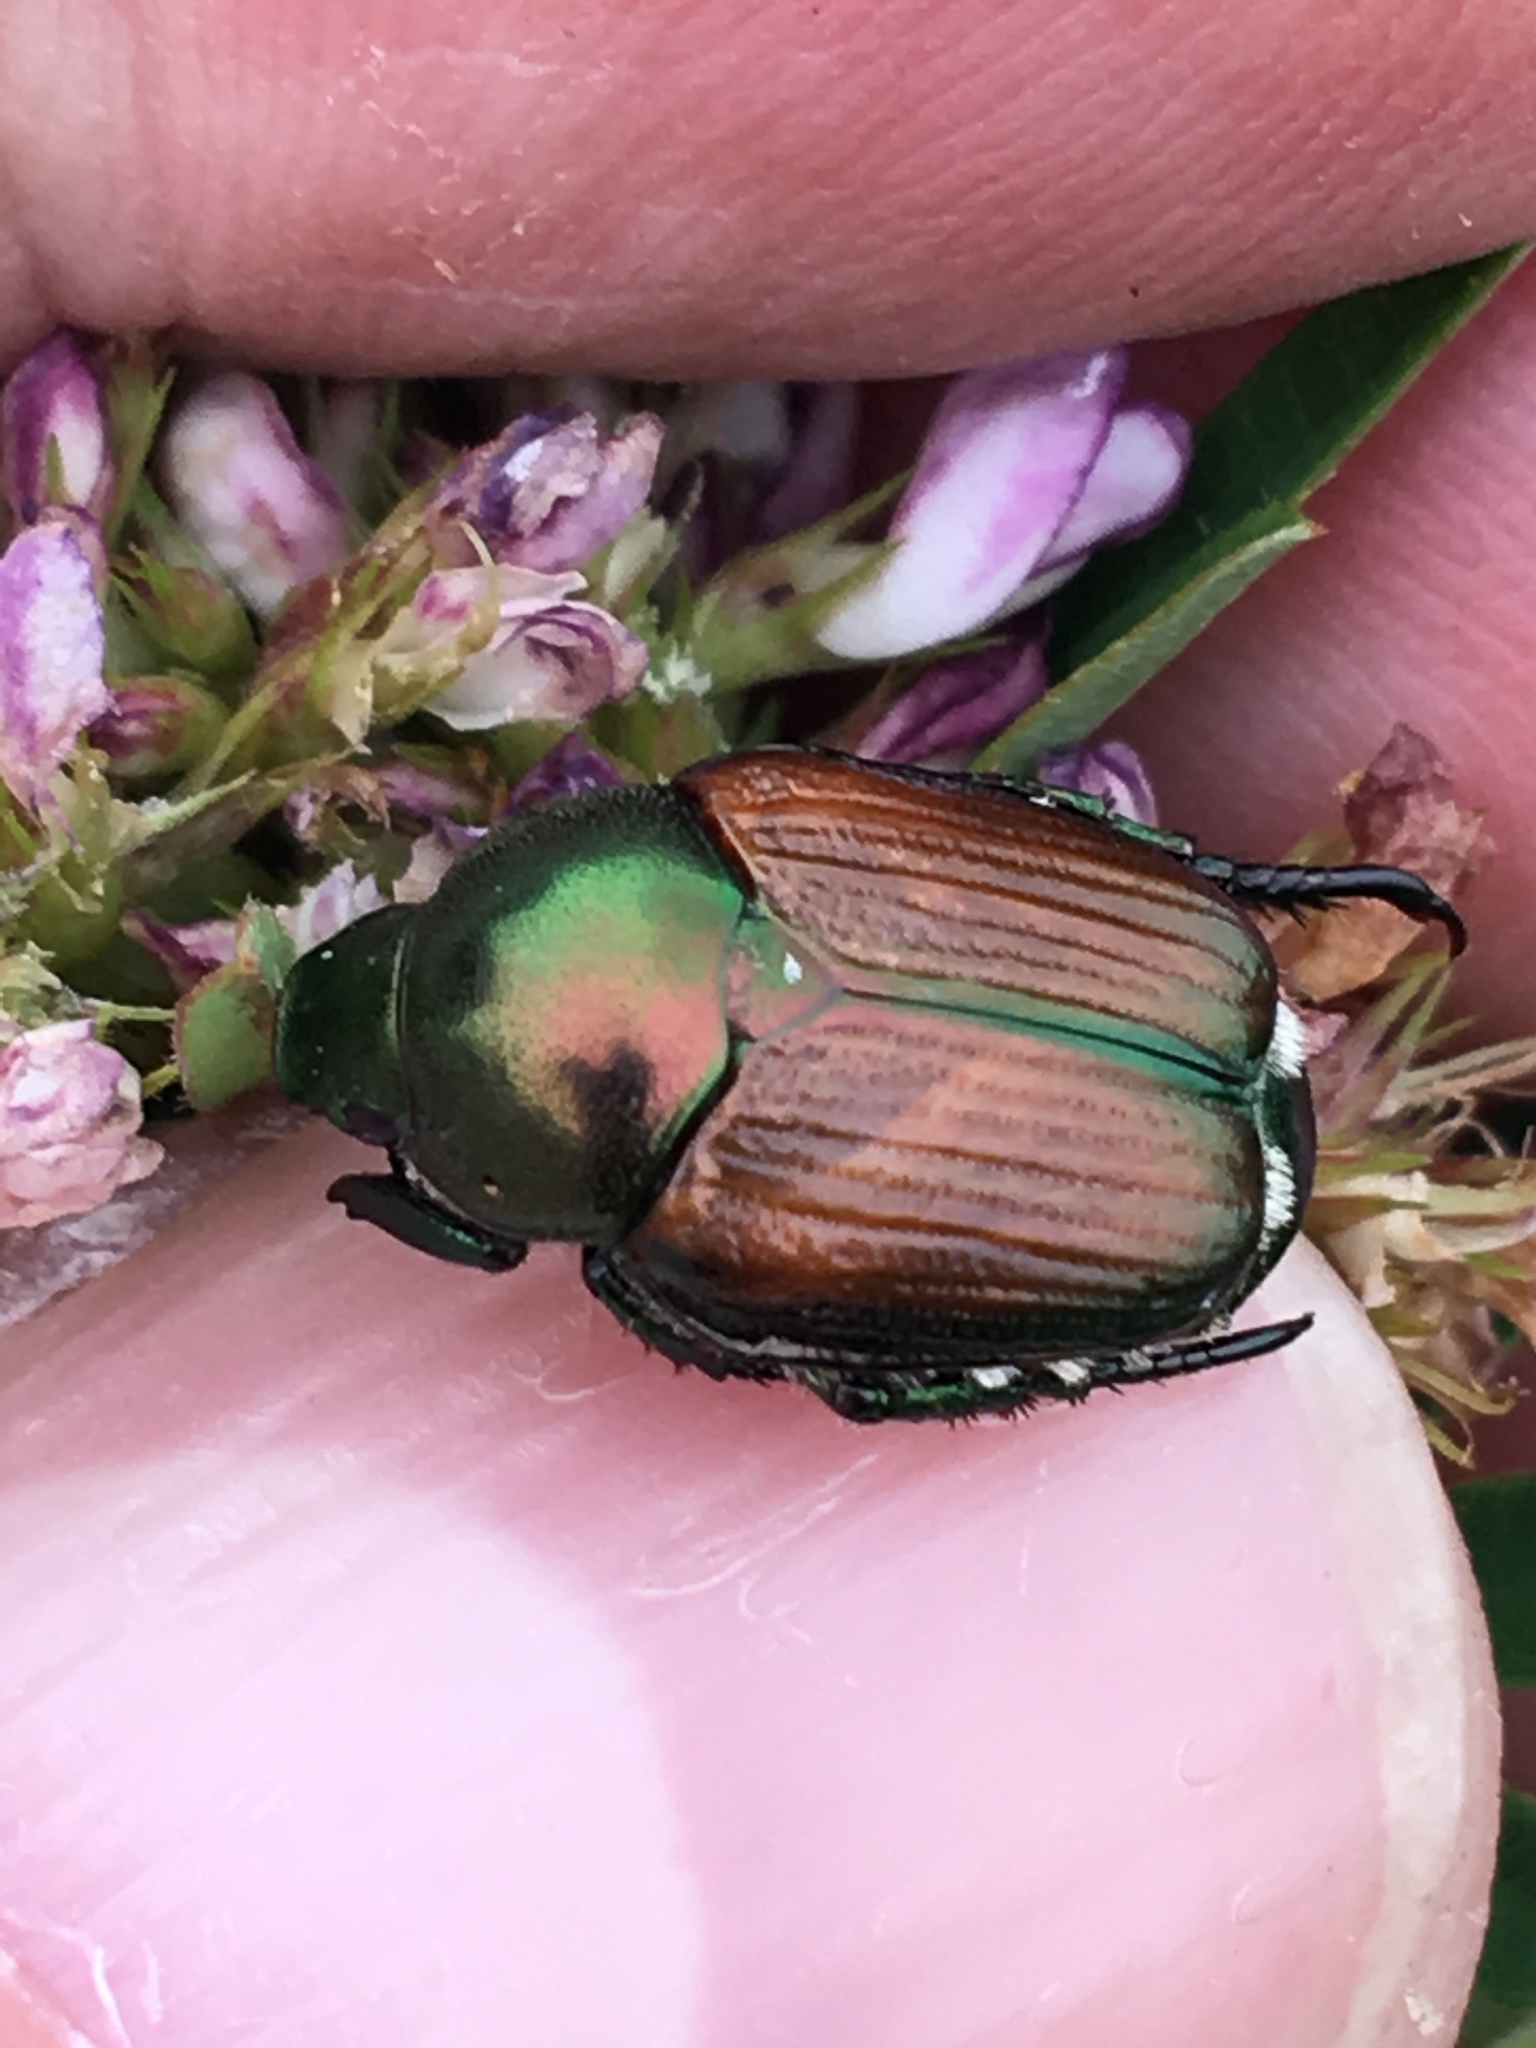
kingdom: Animalia
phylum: Arthropoda
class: Insecta
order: Coleoptera
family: Scarabaeidae
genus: Popillia
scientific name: Popillia japonica
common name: Japanese beetle
